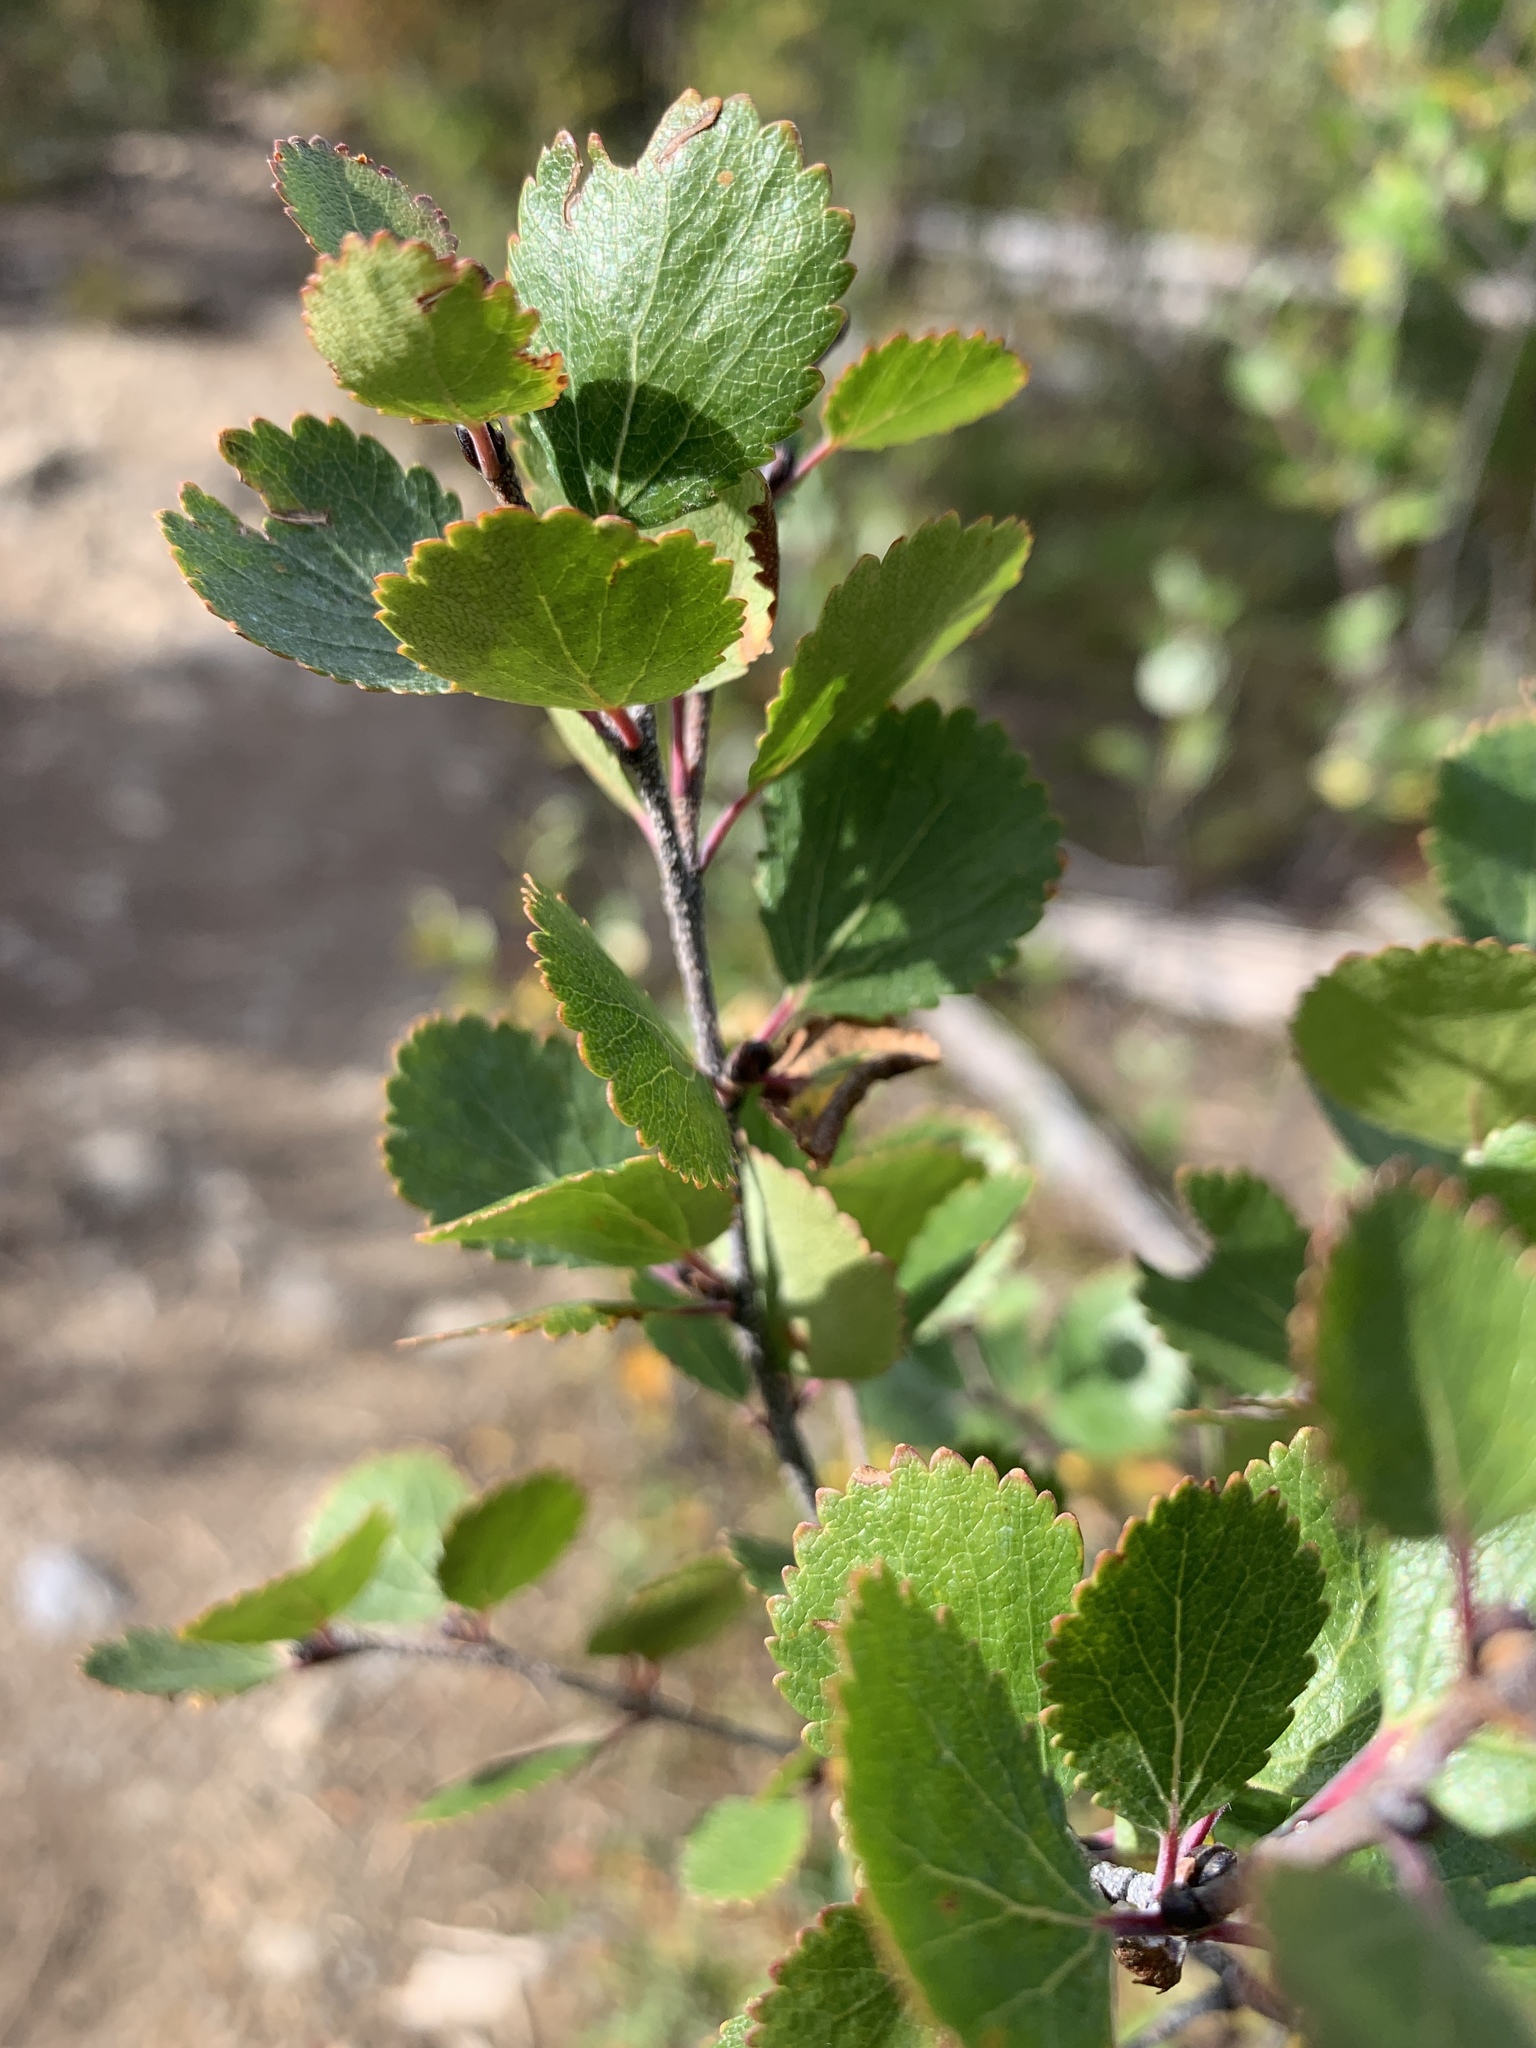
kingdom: Plantae
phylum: Tracheophyta
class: Magnoliopsida
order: Fagales
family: Betulaceae
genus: Betula
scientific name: Betula glandulosa
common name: Dwarf birch
